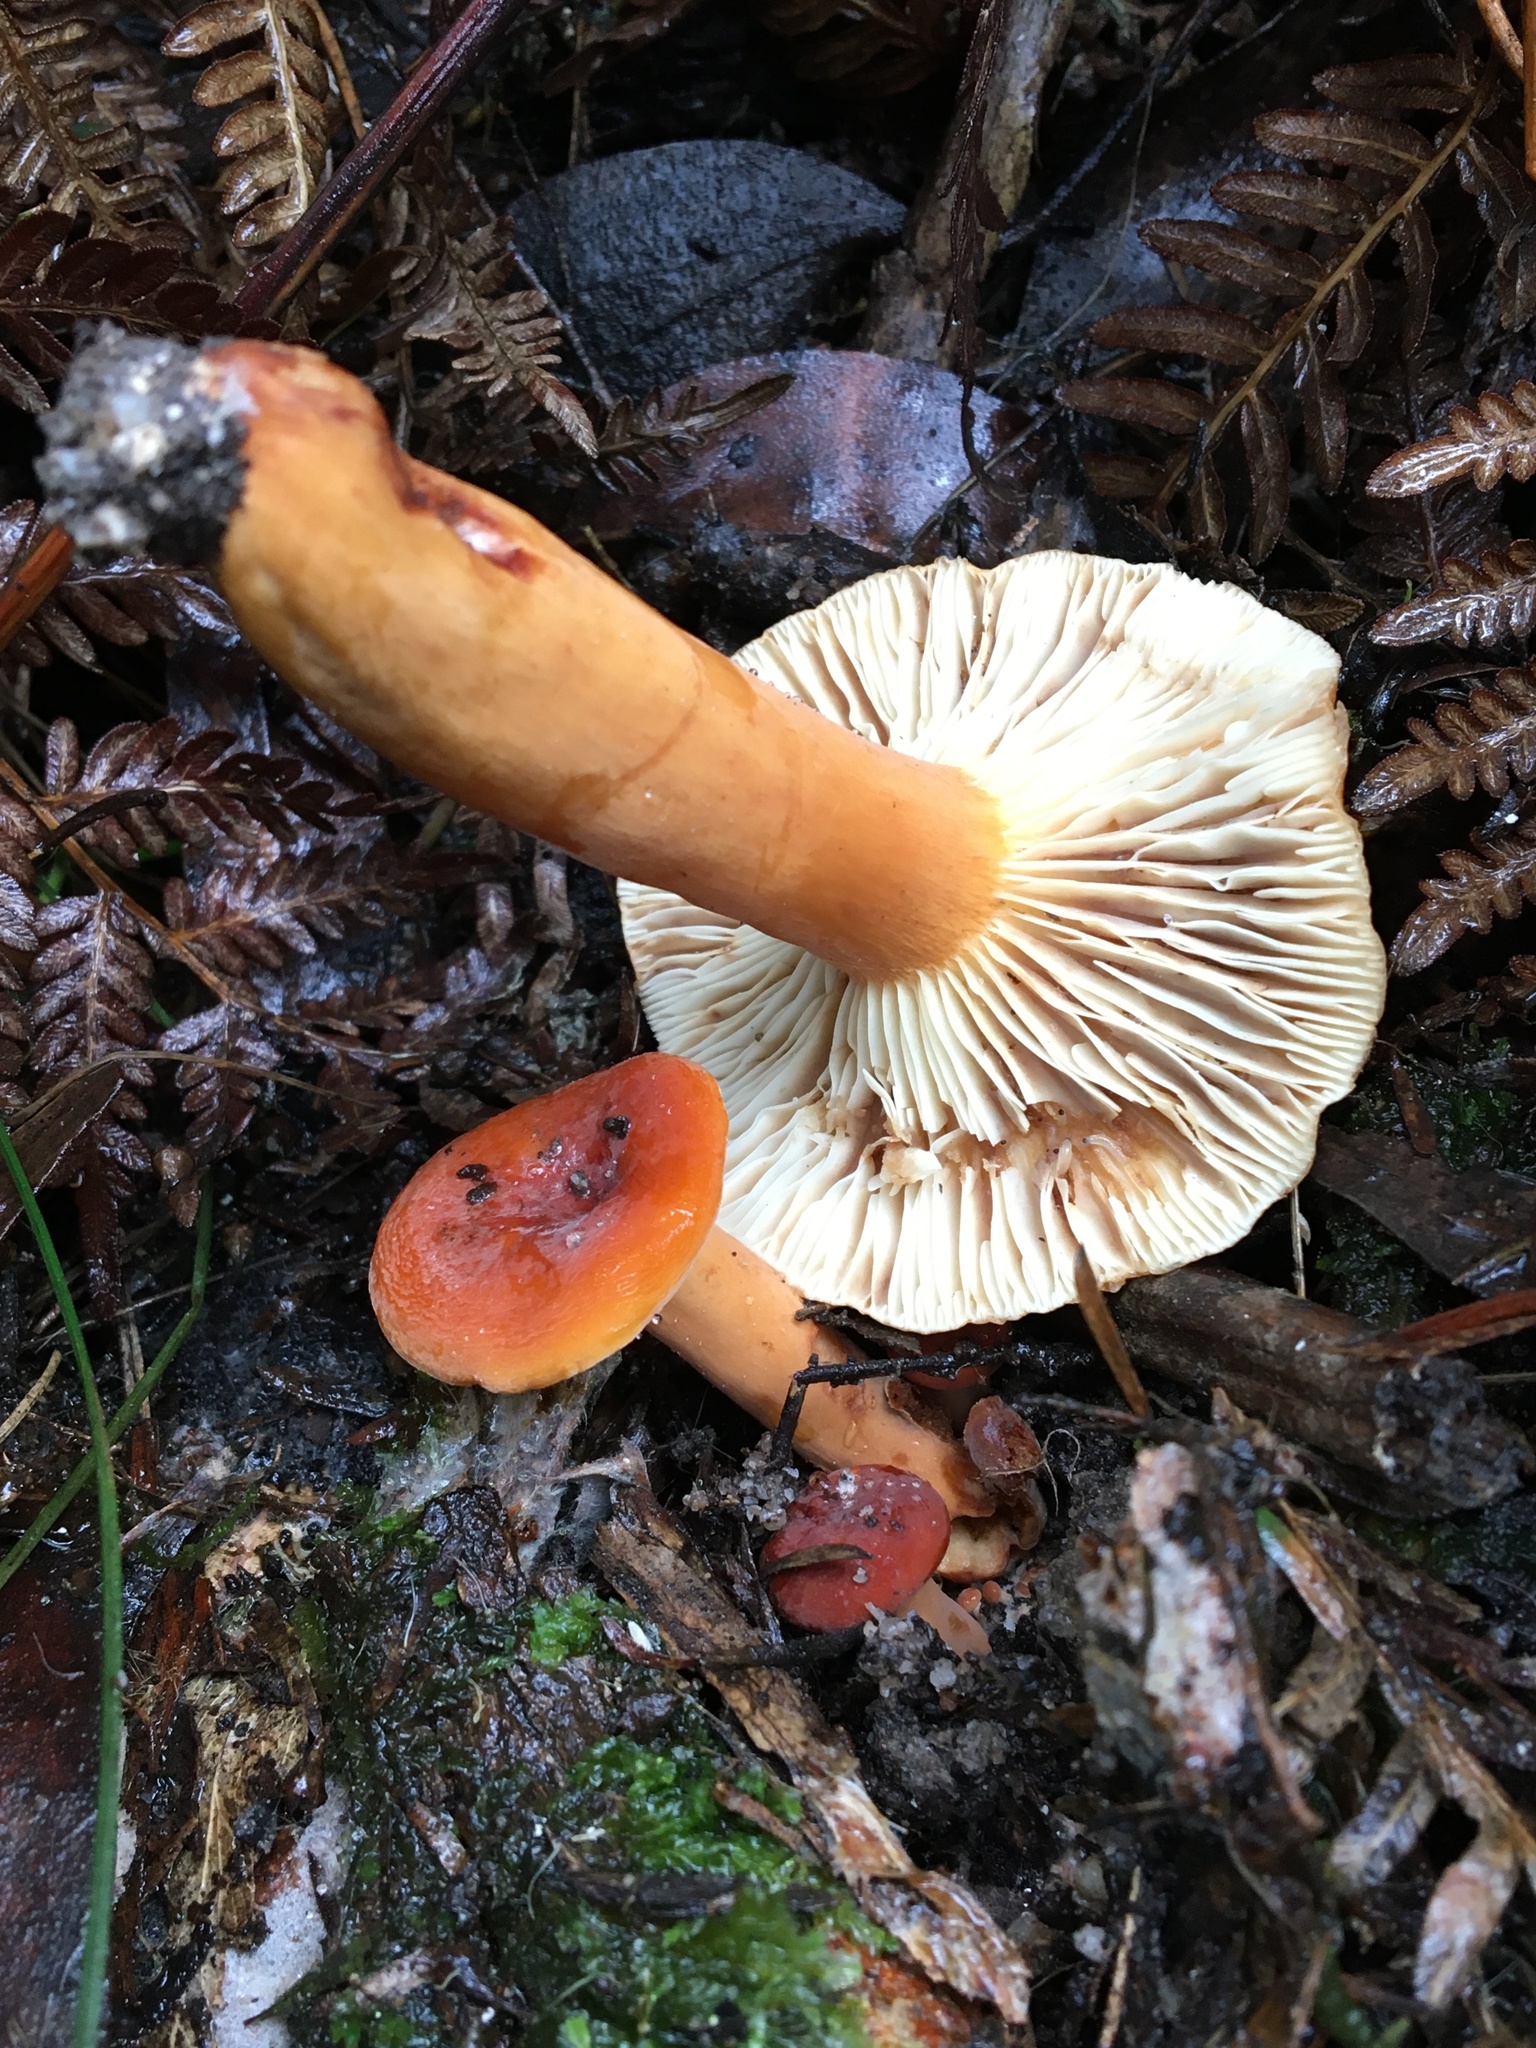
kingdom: Fungi
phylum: Basidiomycota
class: Agaricomycetes
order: Russulales
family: Russulaceae
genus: Lactarius
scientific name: Lactarius eucalypti
